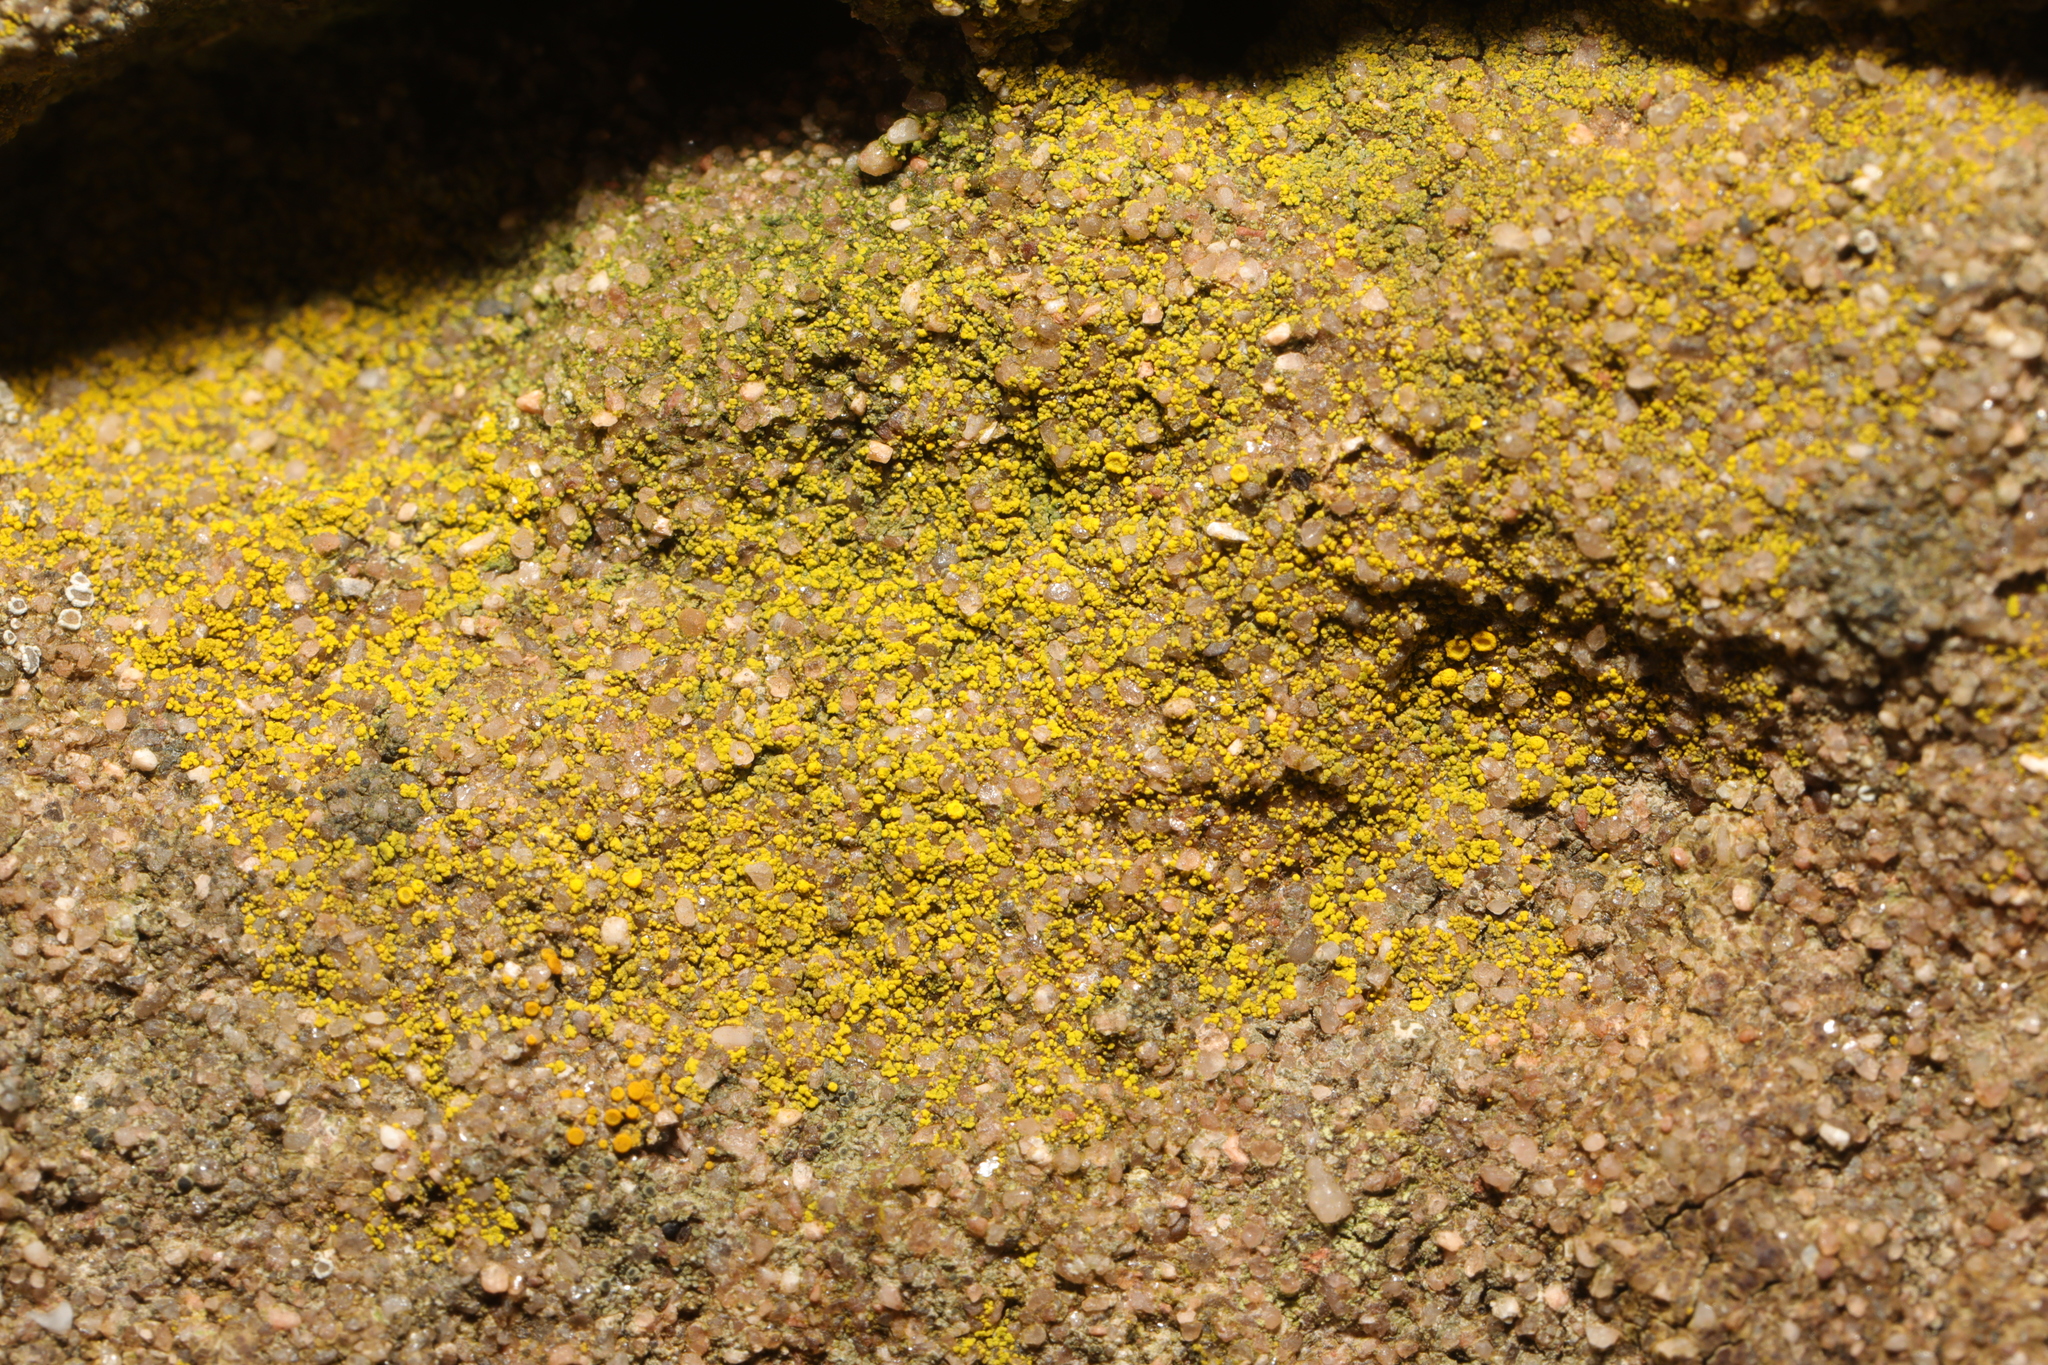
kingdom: Fungi
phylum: Ascomycota
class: Candelariomycetes
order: Candelariales
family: Candelariaceae
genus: Candelariella
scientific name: Candelariella vitellina
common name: Common goldspeck
